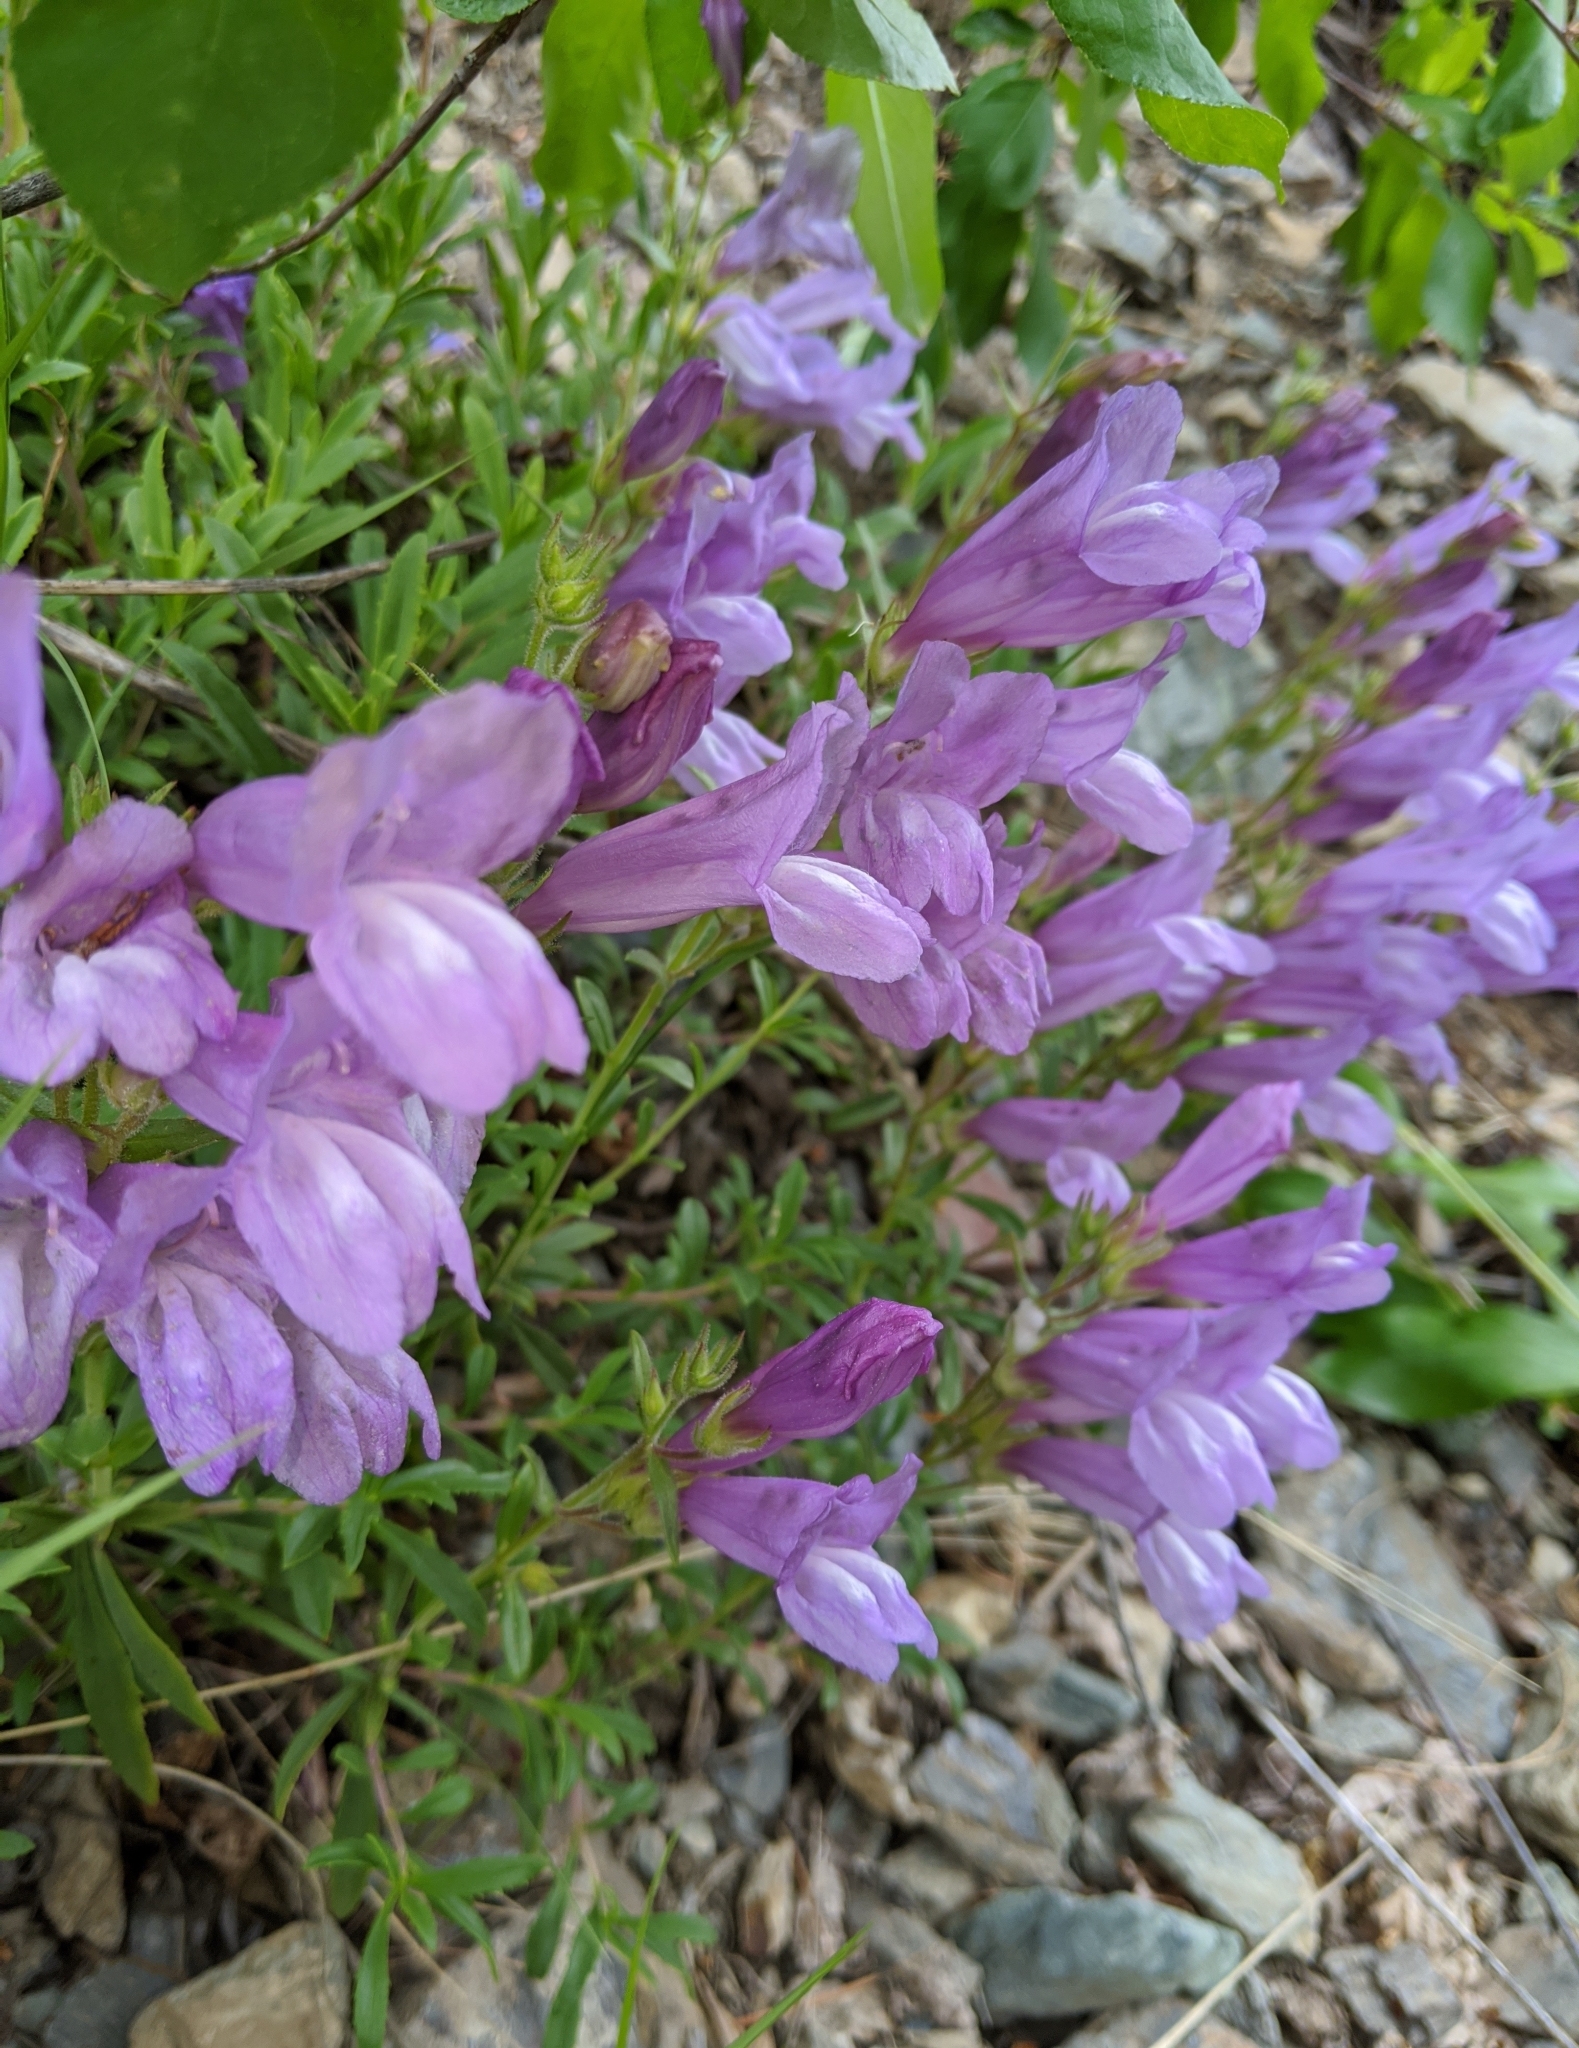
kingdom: Plantae
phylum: Tracheophyta
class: Magnoliopsida
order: Lamiales
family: Plantaginaceae
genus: Penstemon
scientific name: Penstemon fruticosus
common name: Bush penstemon
